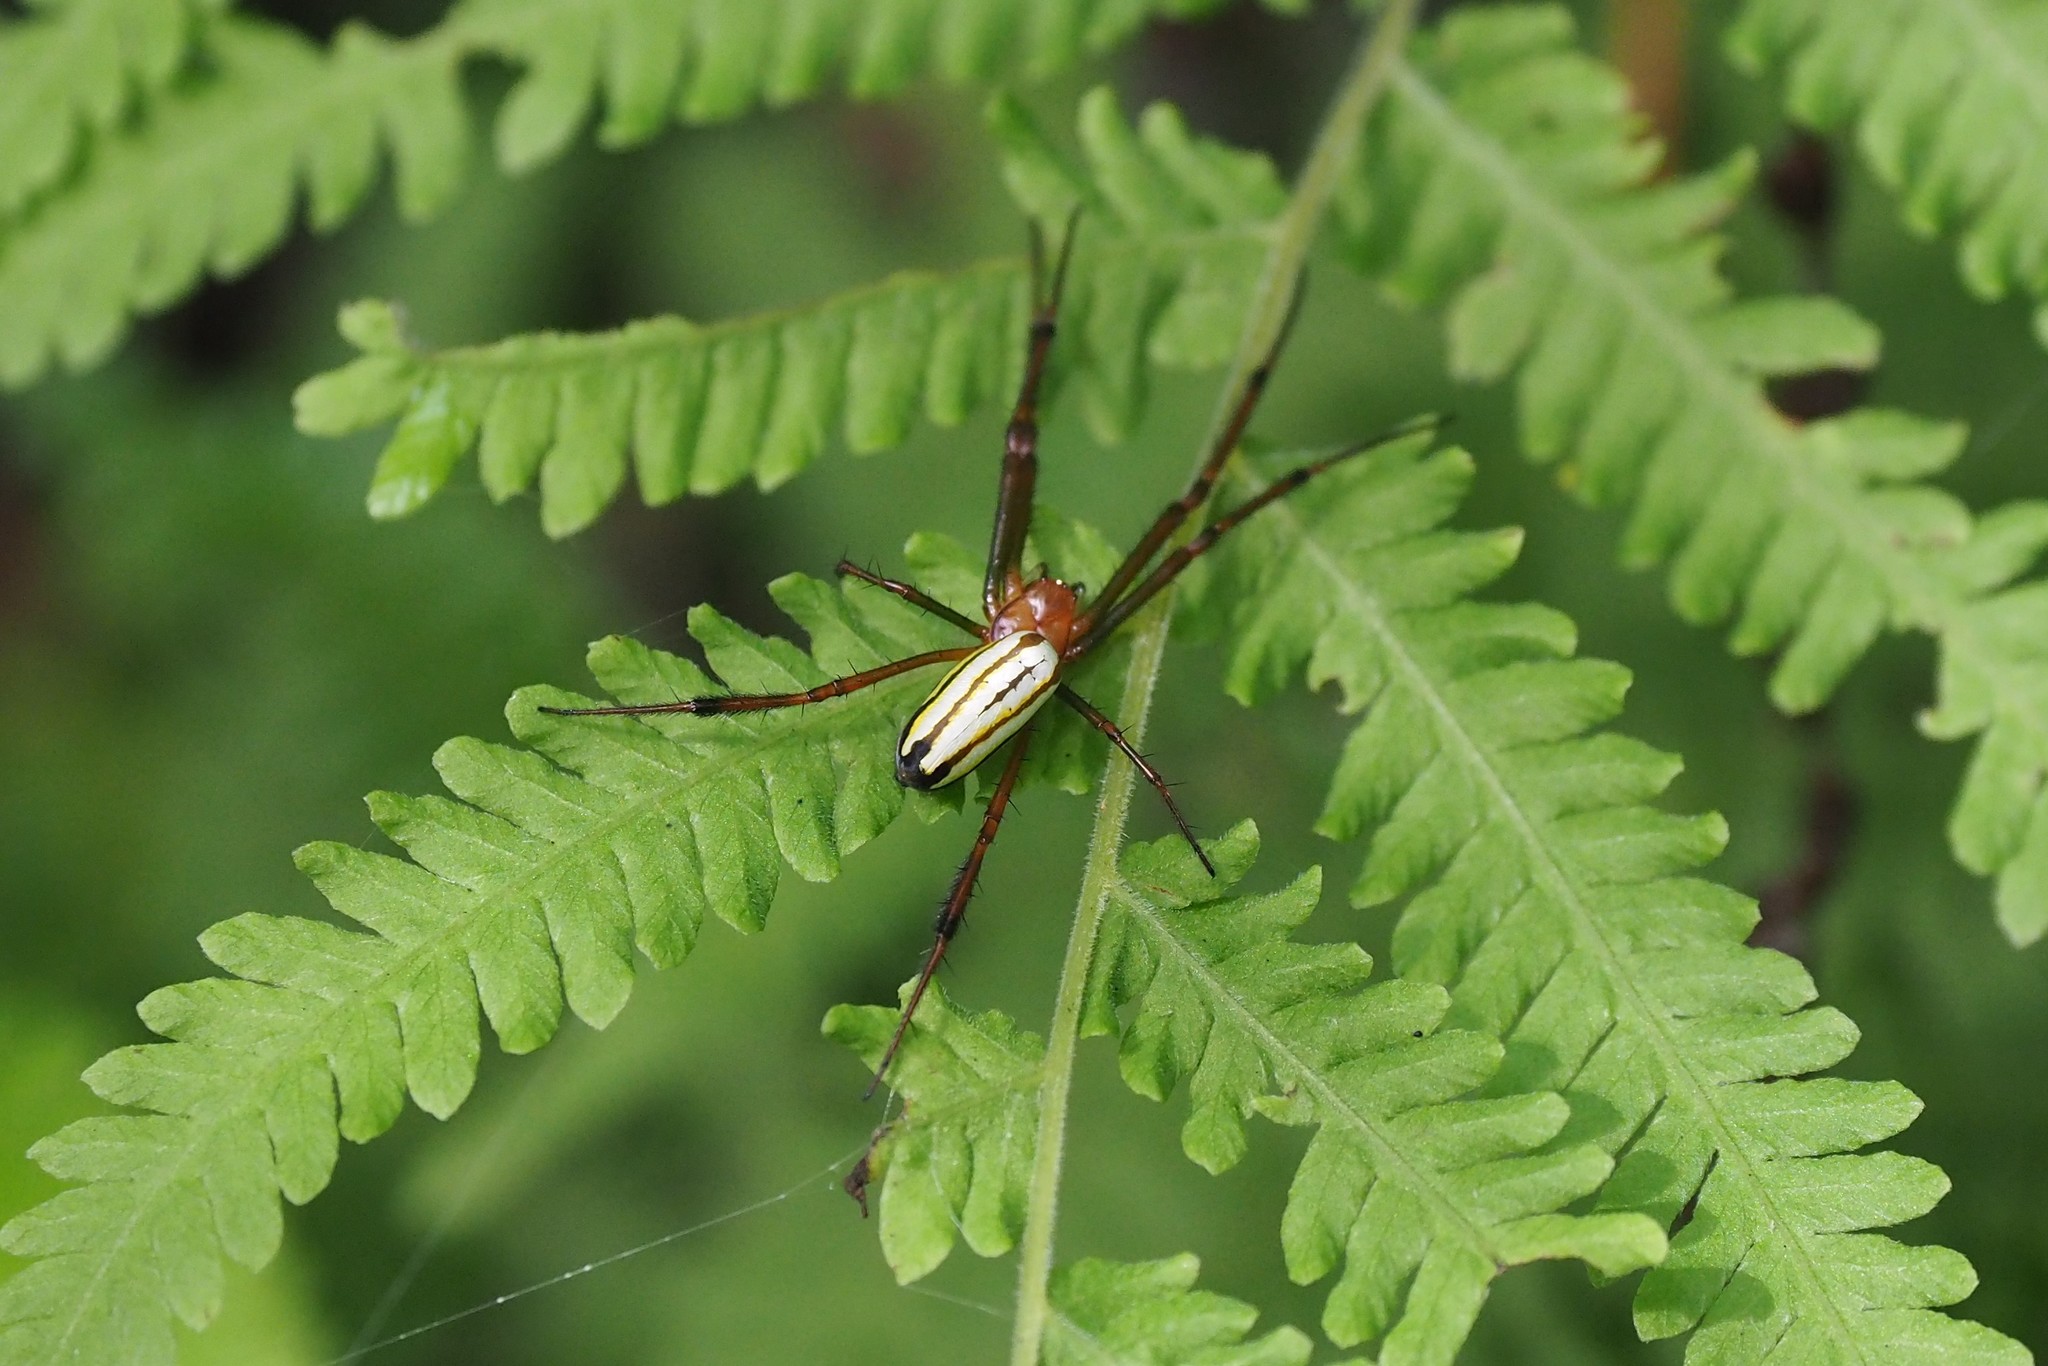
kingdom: Animalia
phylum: Arthropoda
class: Arachnida
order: Araneae
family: Tetragnathidae
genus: Leucauge
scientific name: Leucauge wulingensis
